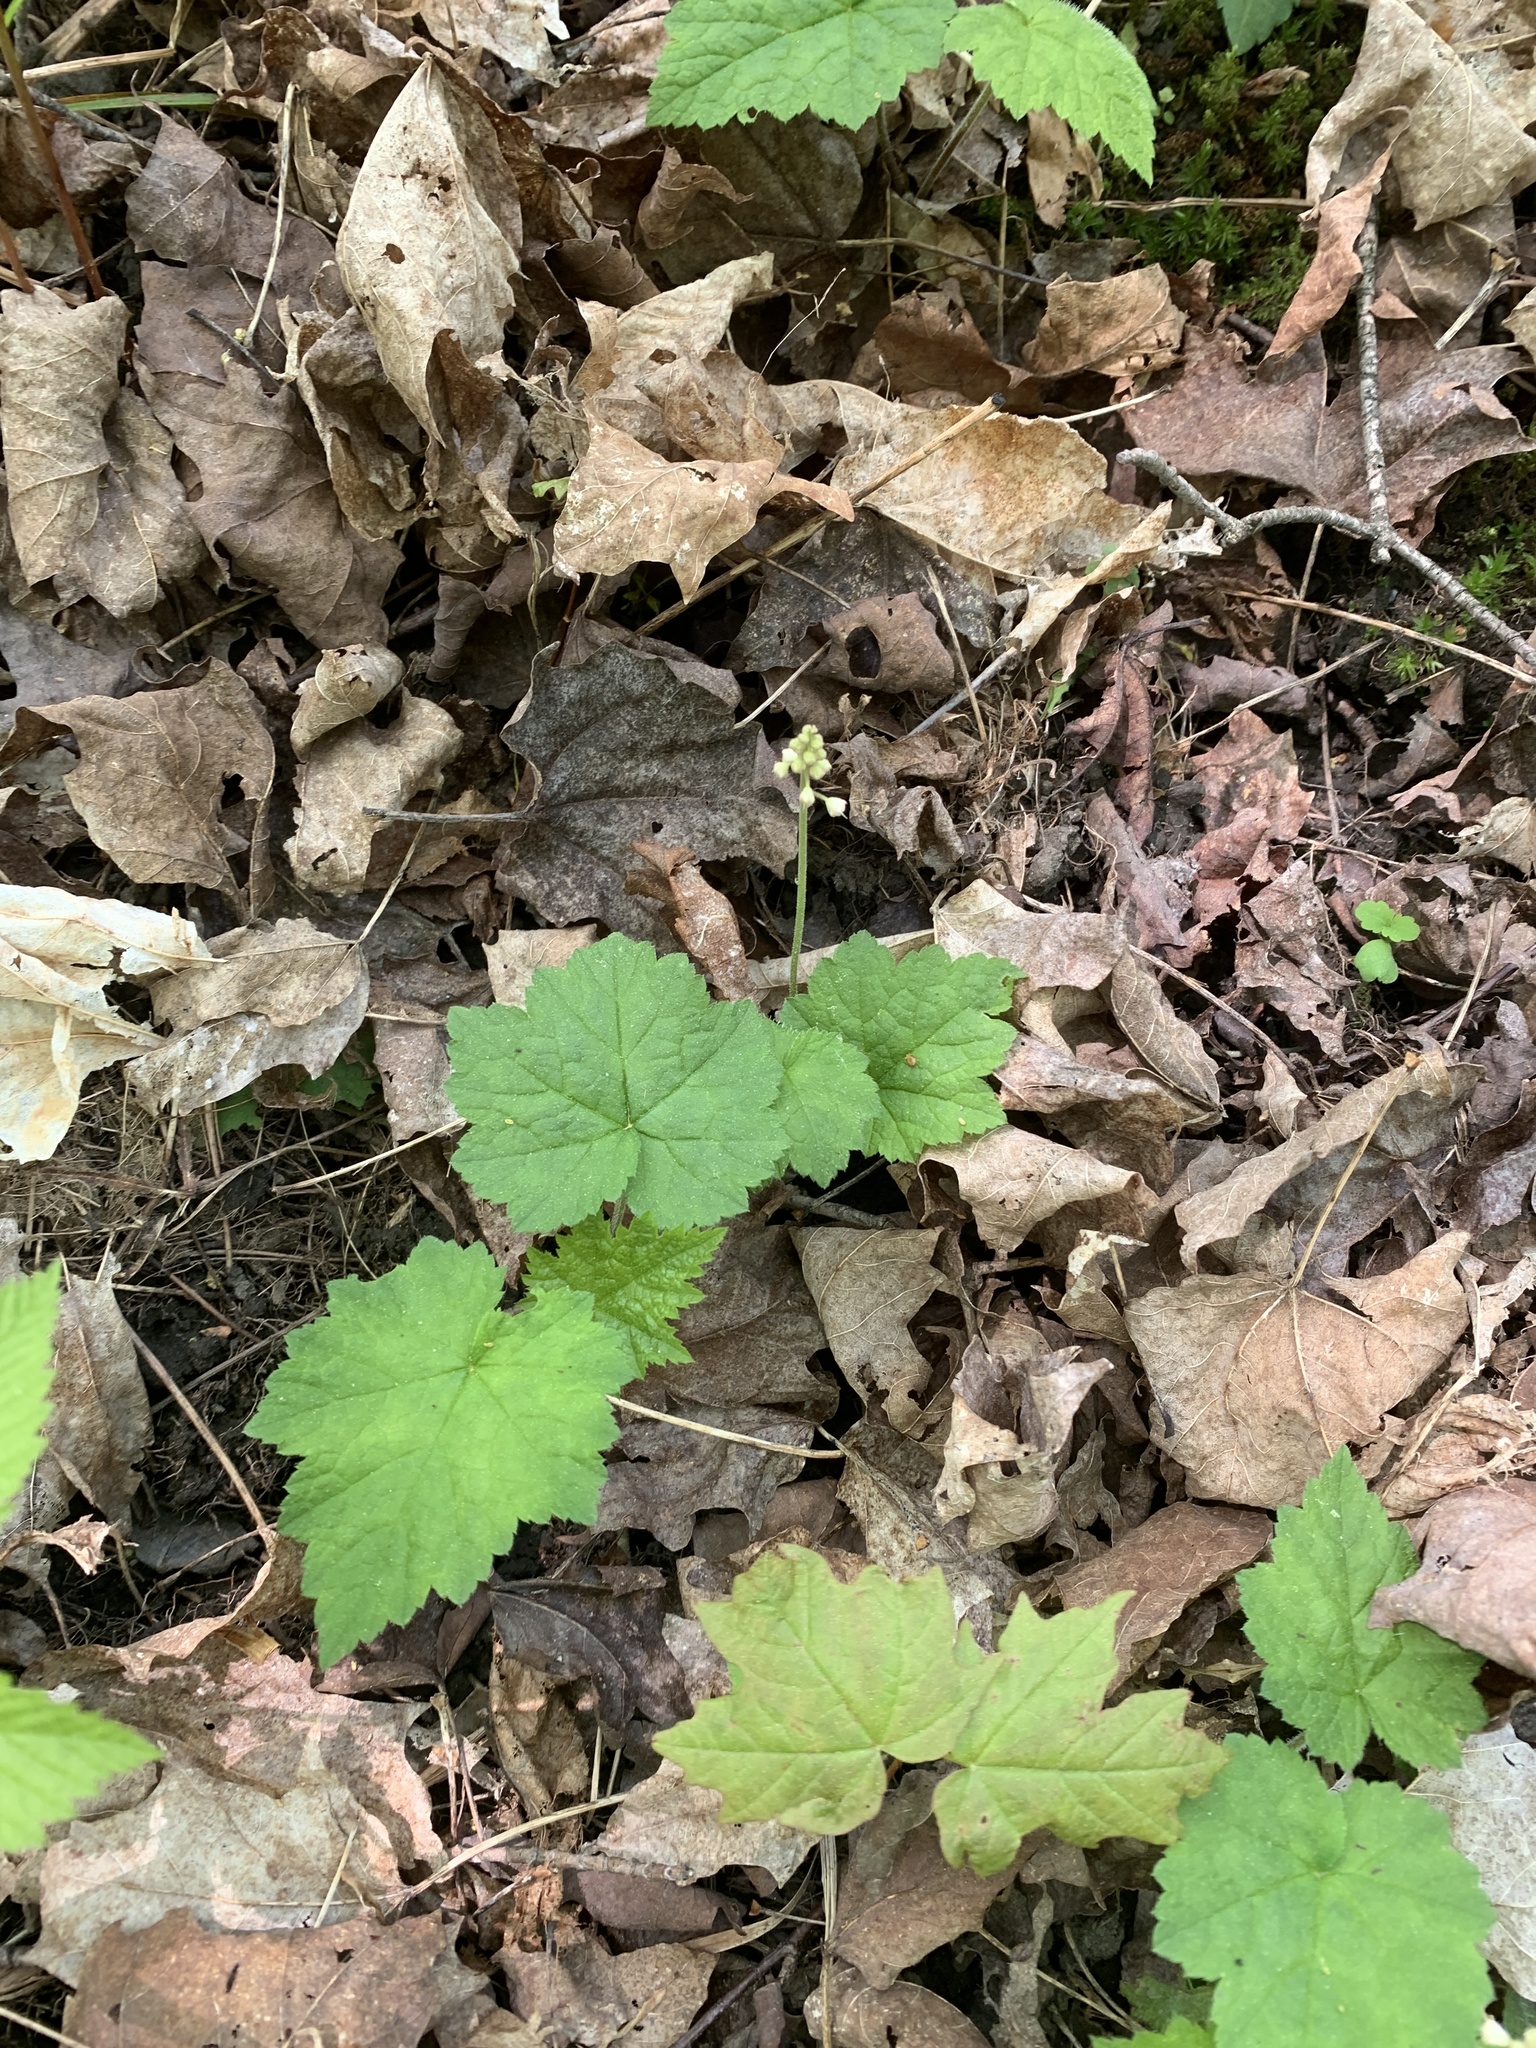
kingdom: Plantae
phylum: Tracheophyta
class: Magnoliopsida
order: Saxifragales
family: Saxifragaceae
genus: Tiarella
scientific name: Tiarella stolonifera
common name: Stoloniferous foamflower
